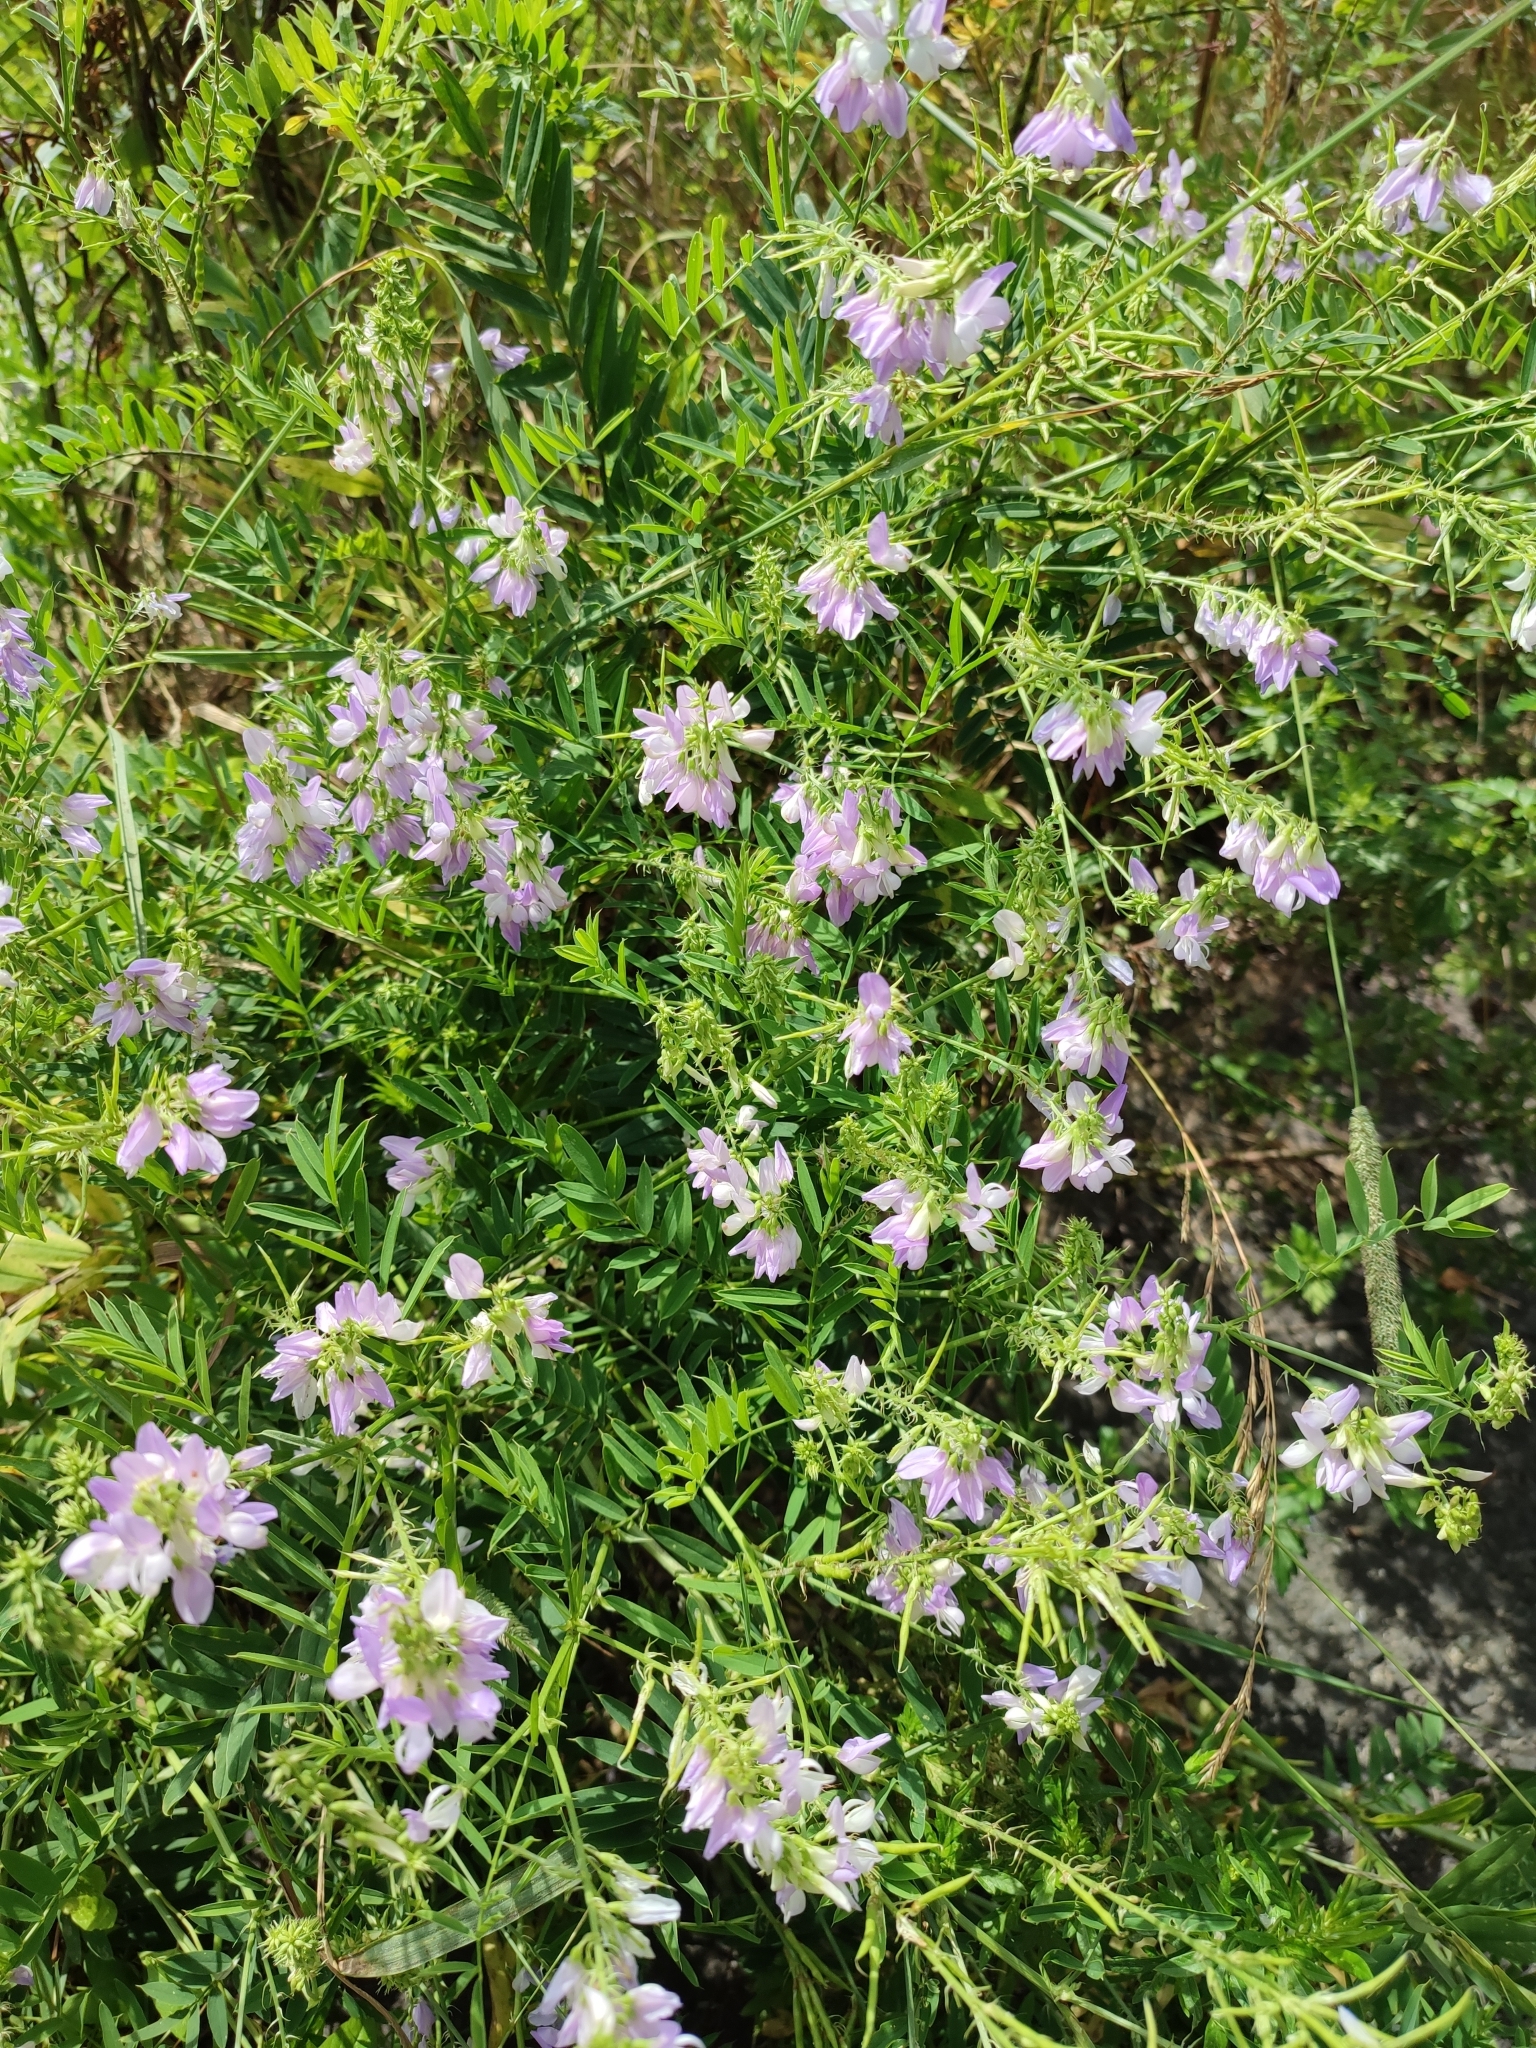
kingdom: Plantae
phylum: Tracheophyta
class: Magnoliopsida
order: Fabales
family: Fabaceae
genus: Galega
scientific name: Galega officinalis
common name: Goat's-rue
